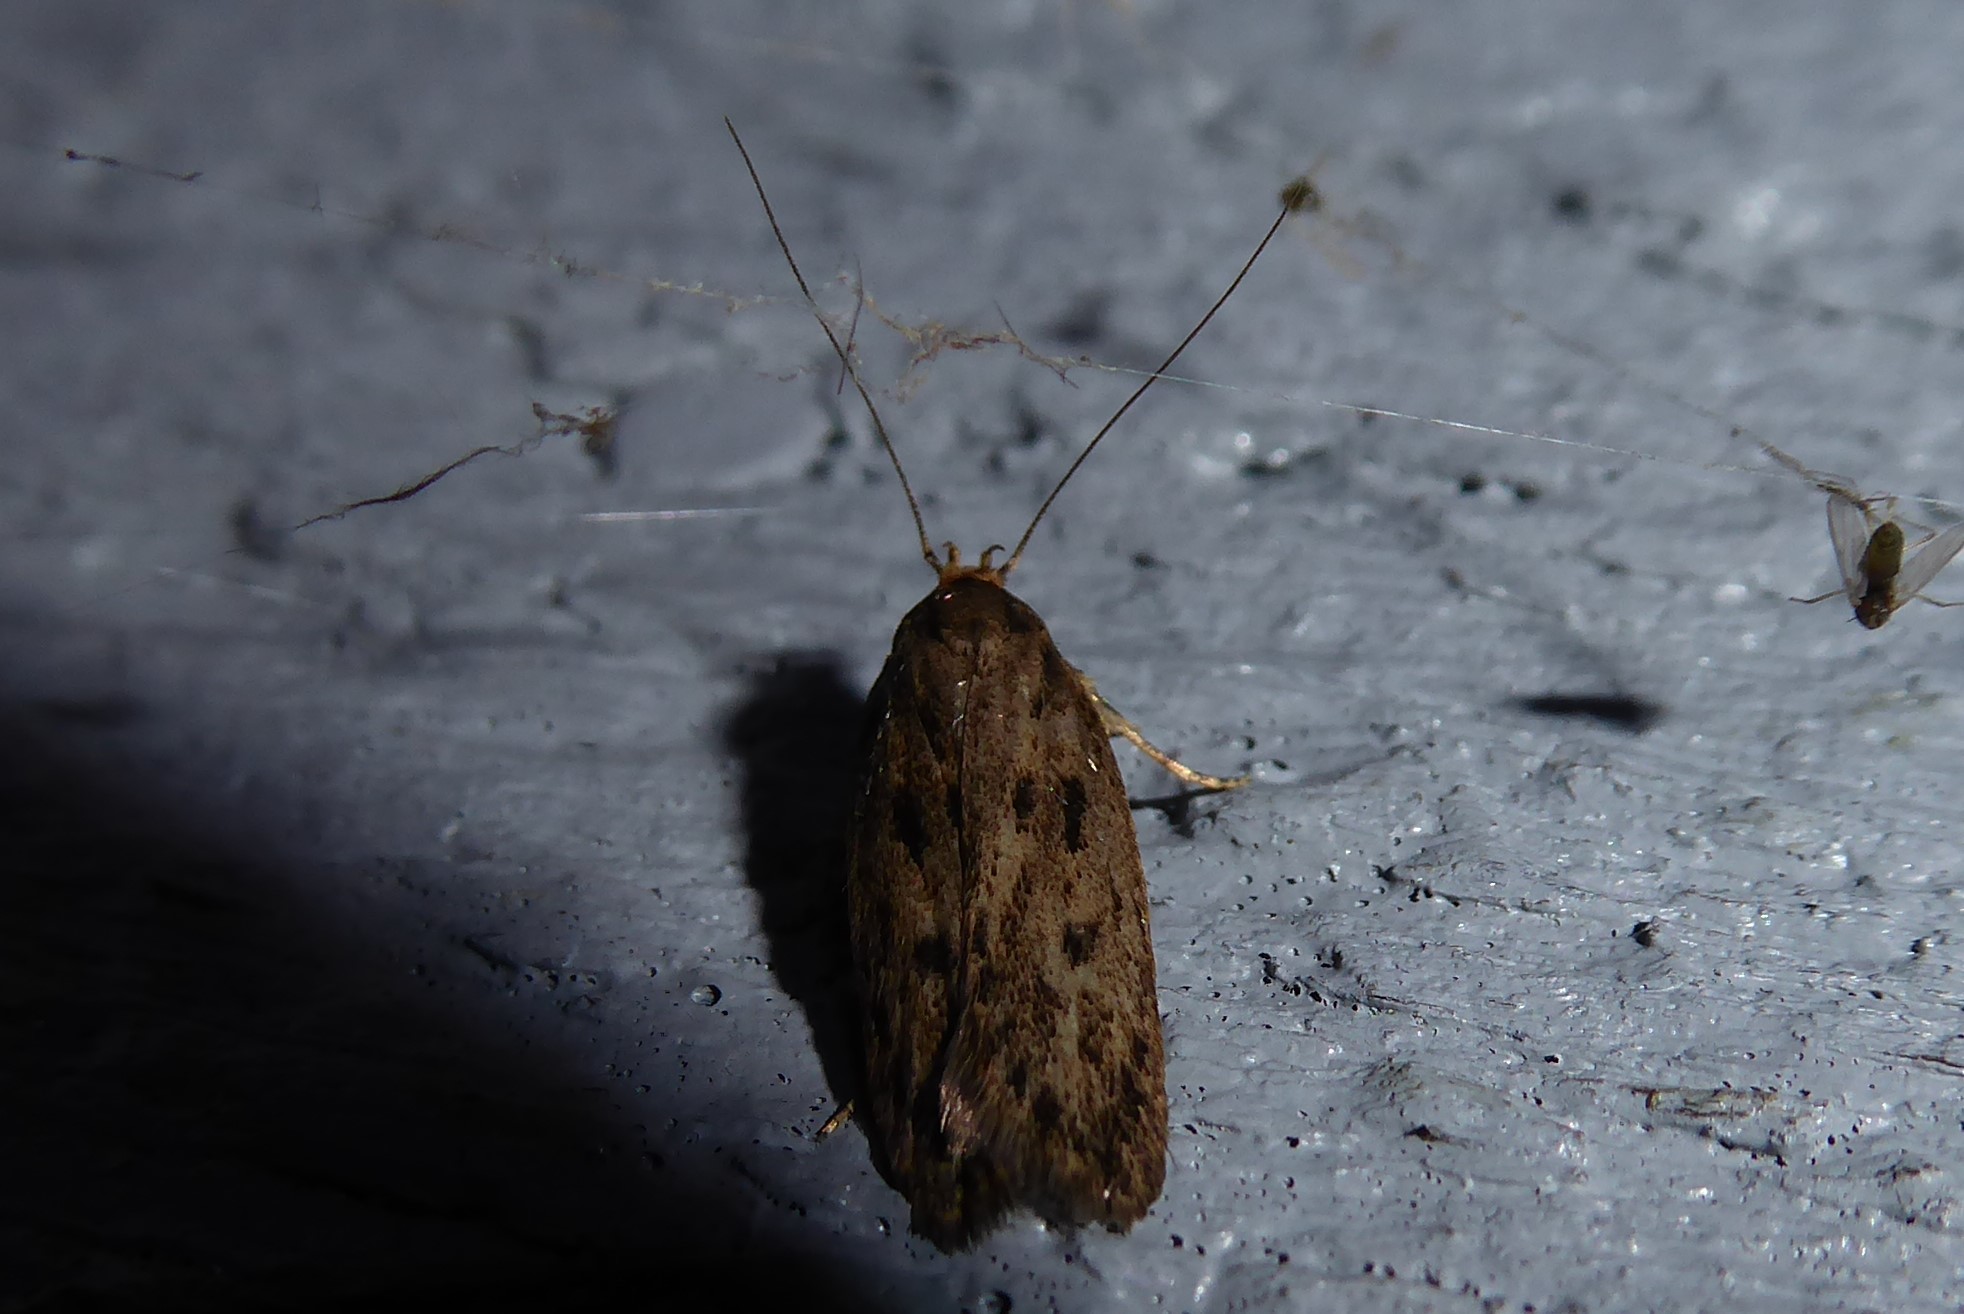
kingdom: Animalia
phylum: Arthropoda
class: Insecta
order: Lepidoptera
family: Oecophoridae
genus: Hofmannophila
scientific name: Hofmannophila pseudospretella
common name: Brown house moth
